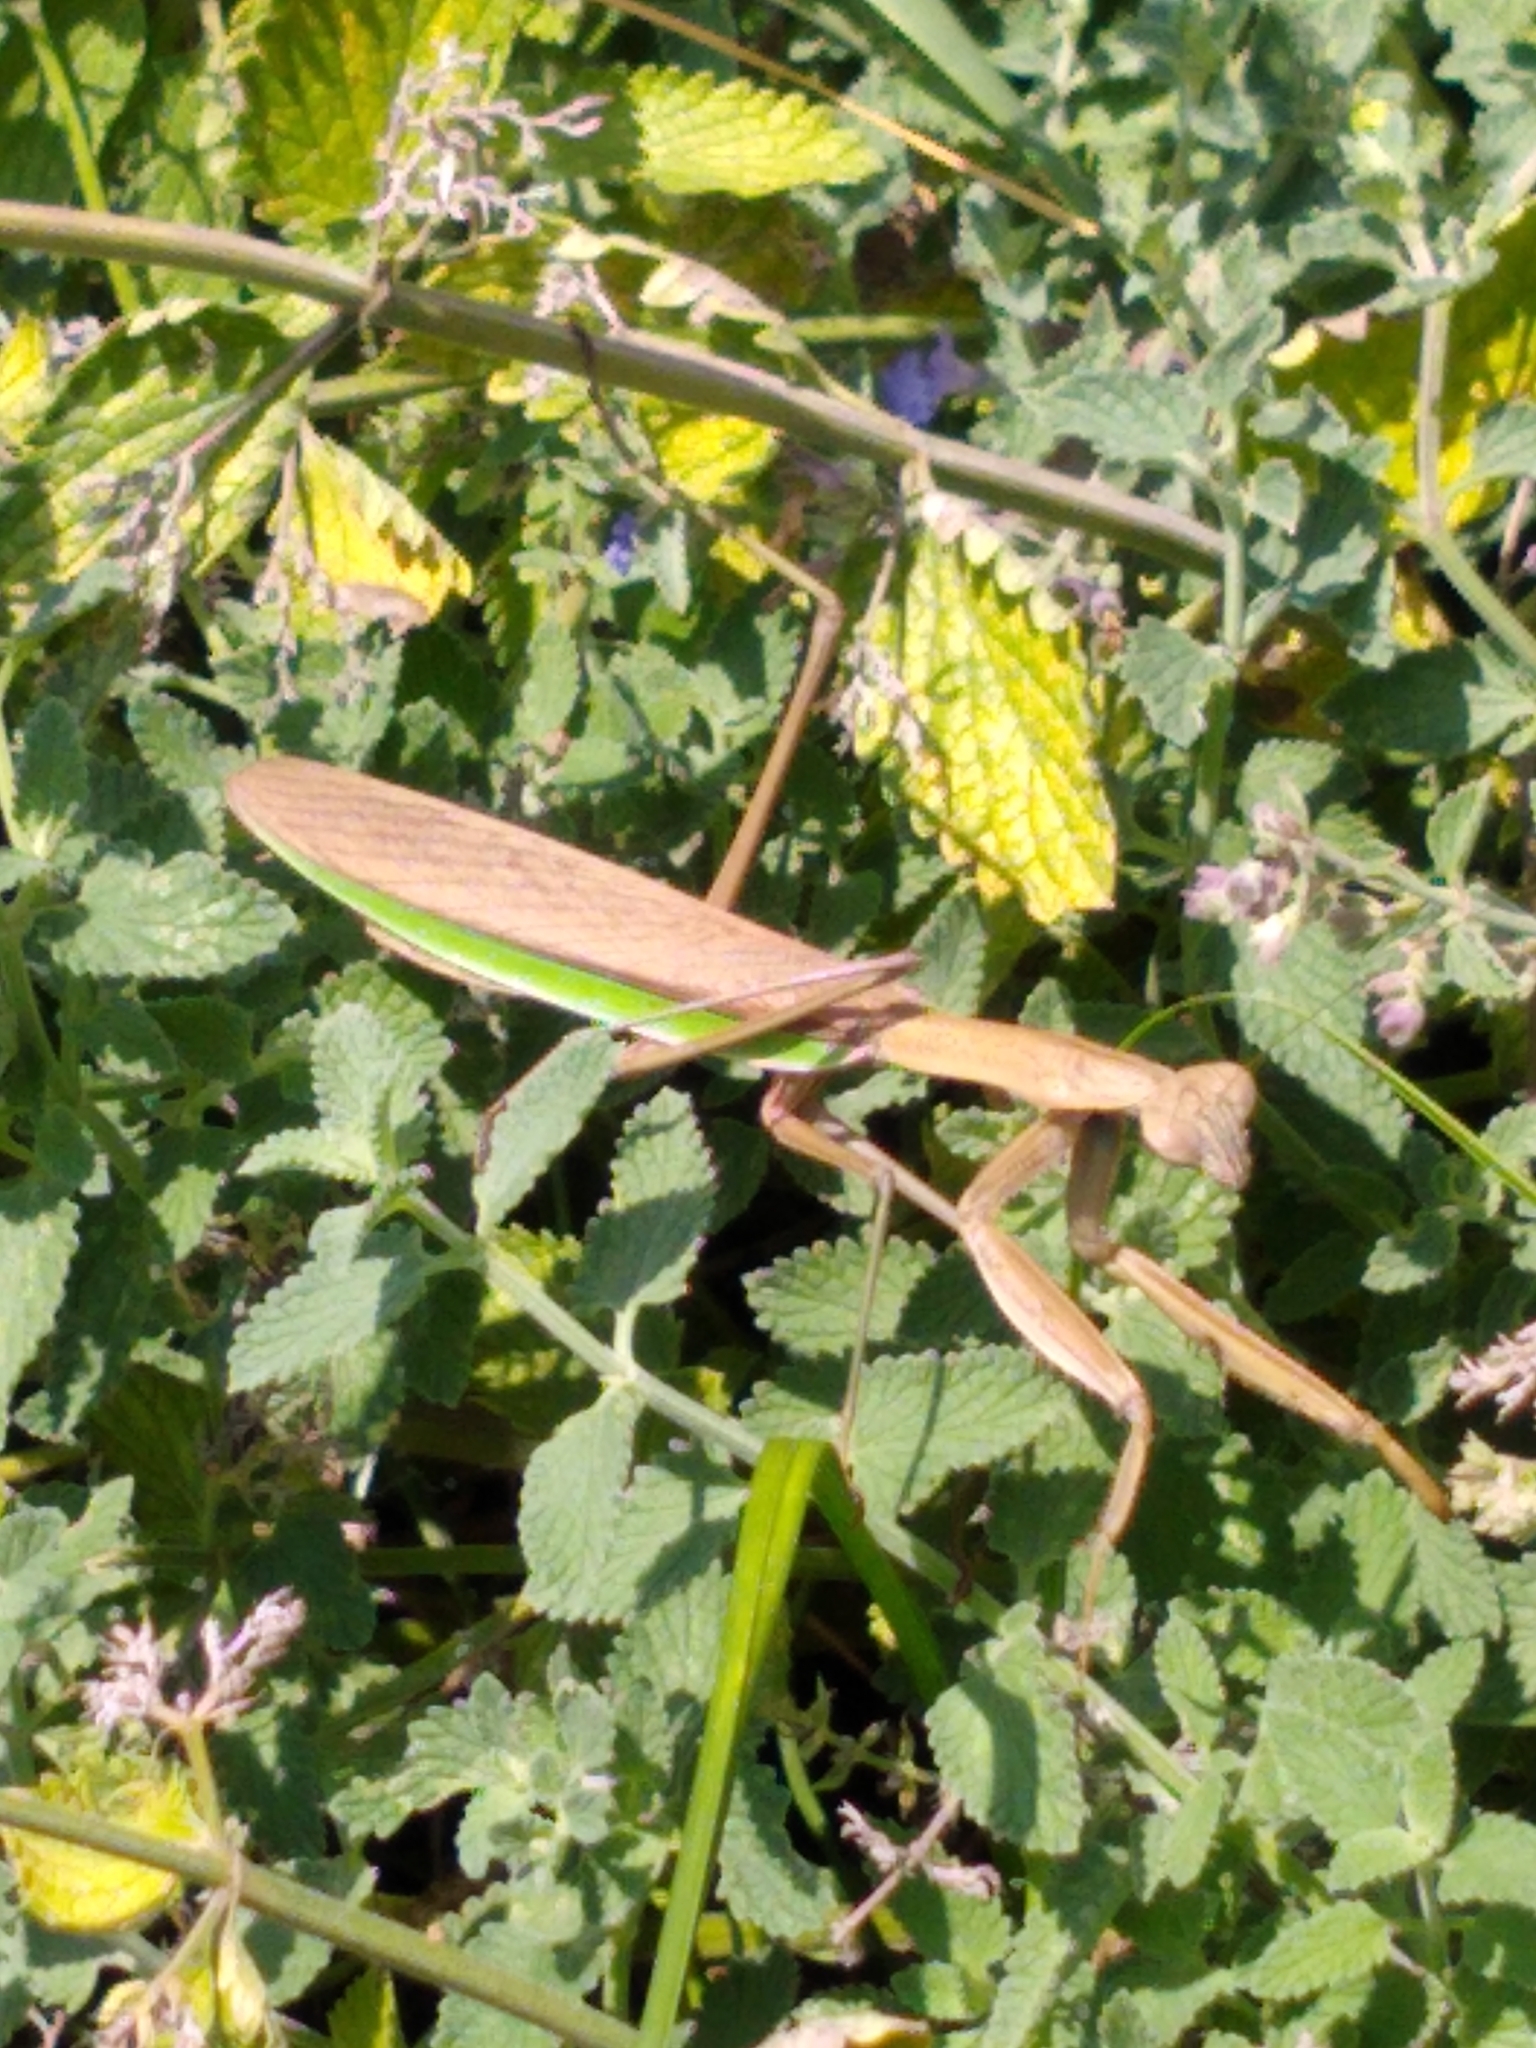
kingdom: Animalia
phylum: Arthropoda
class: Insecta
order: Mantodea
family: Mantidae
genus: Tenodera
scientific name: Tenodera sinensis
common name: Chinese mantis
